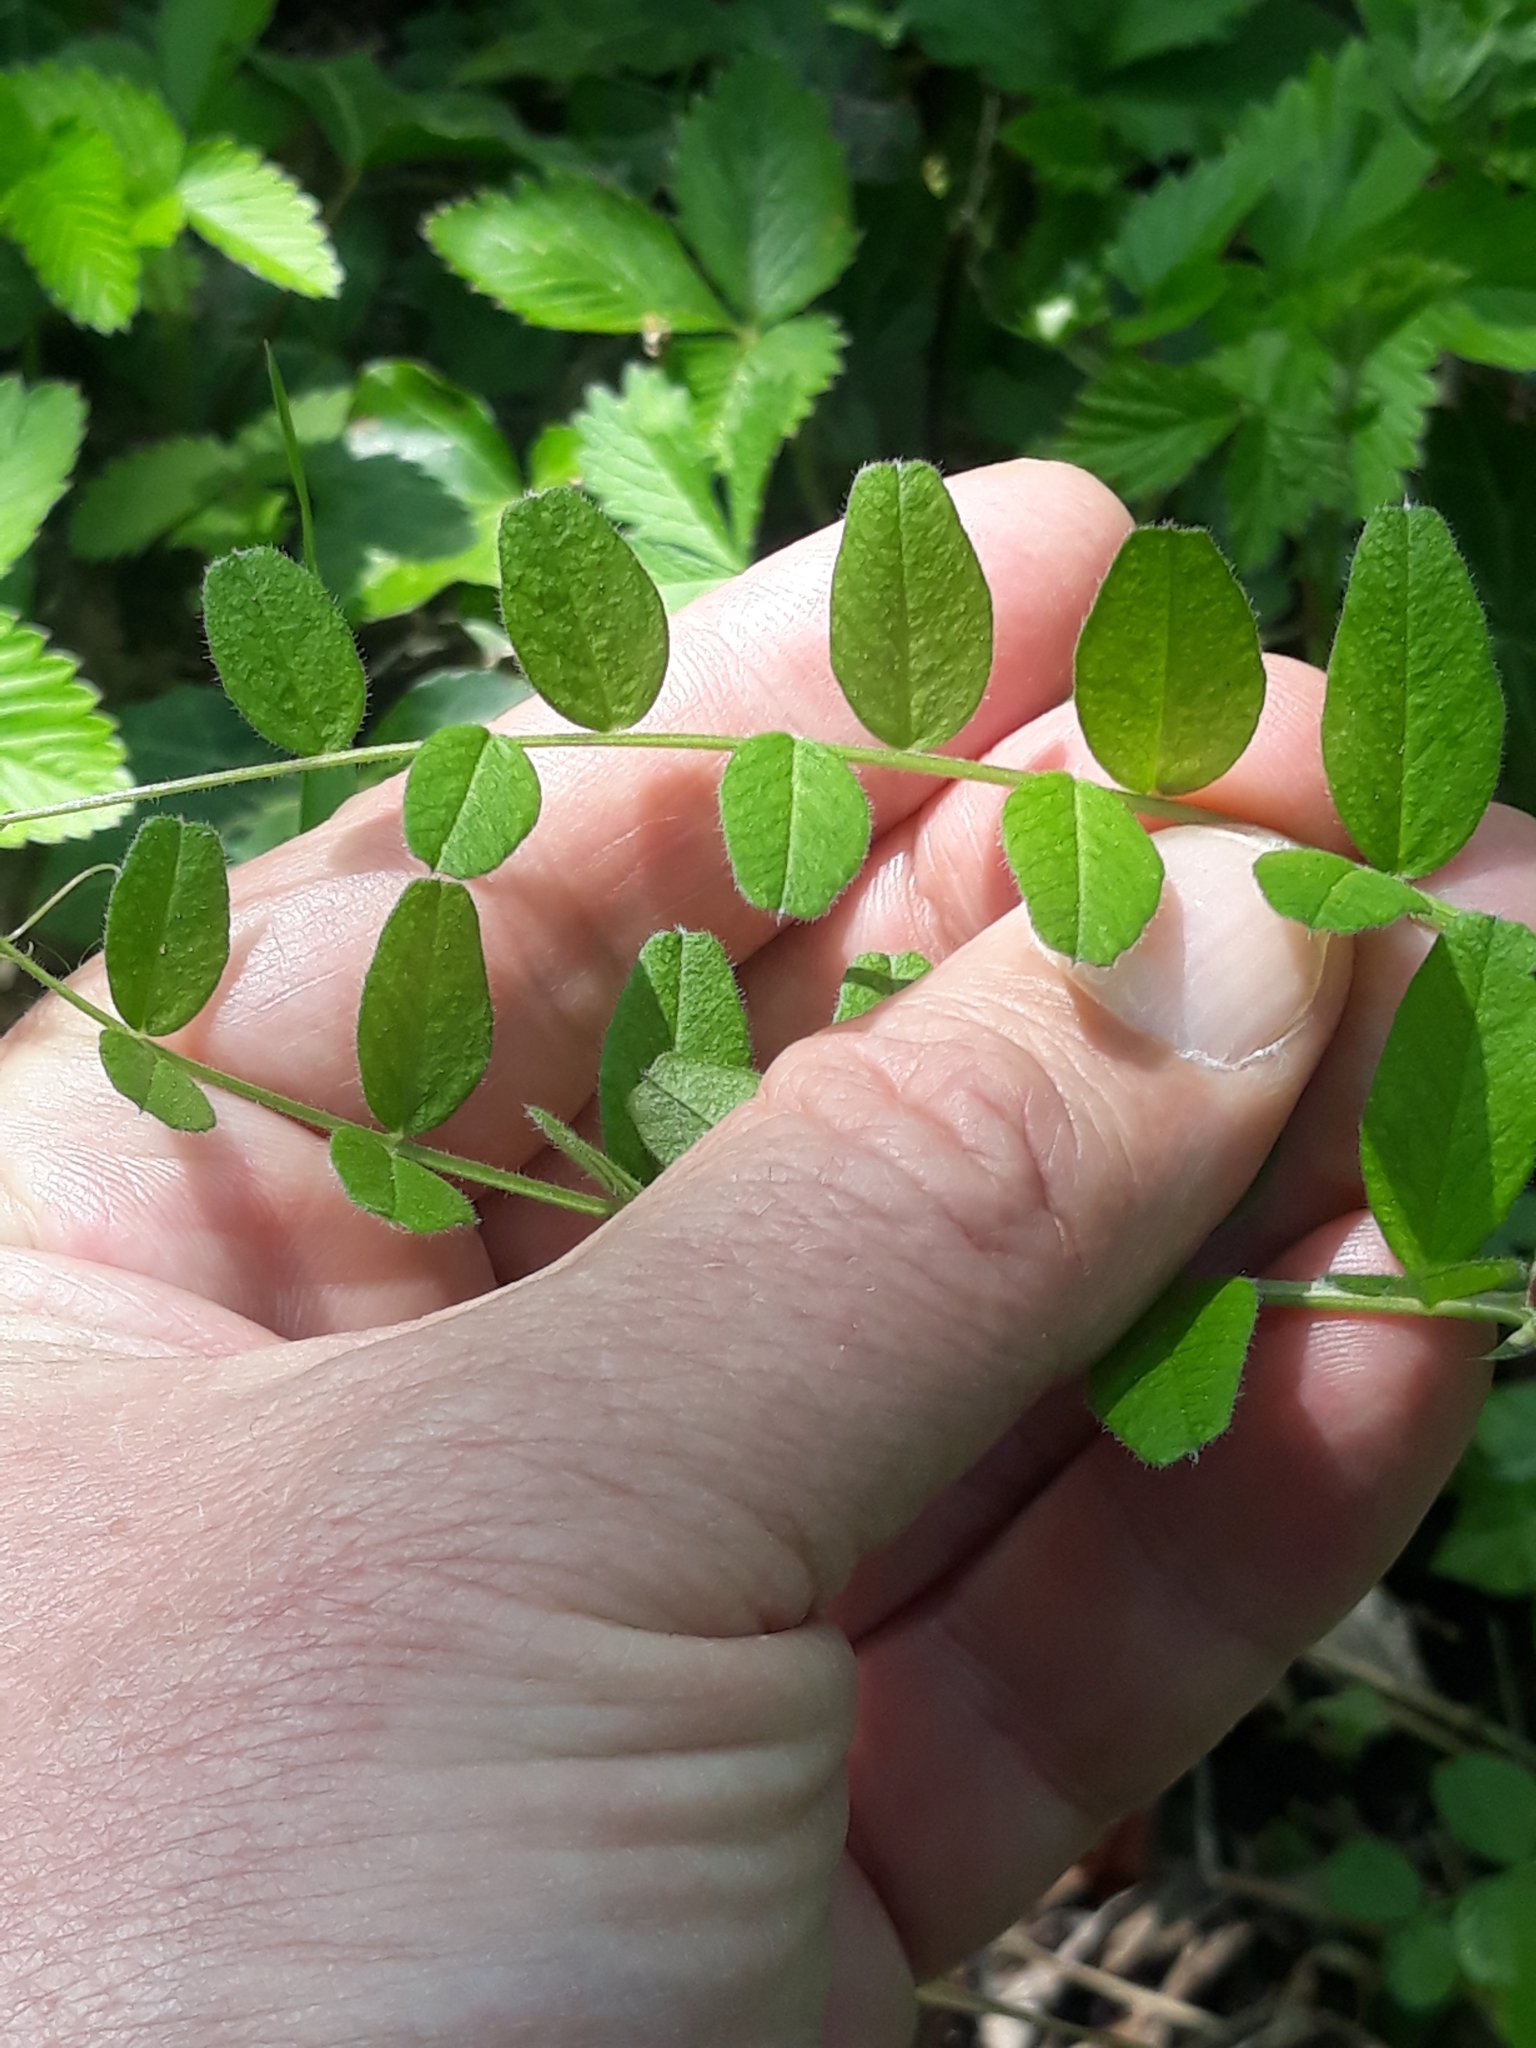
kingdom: Plantae
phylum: Tracheophyta
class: Magnoliopsida
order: Fabales
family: Fabaceae
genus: Vicia
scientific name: Vicia sepium
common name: Bush vetch
